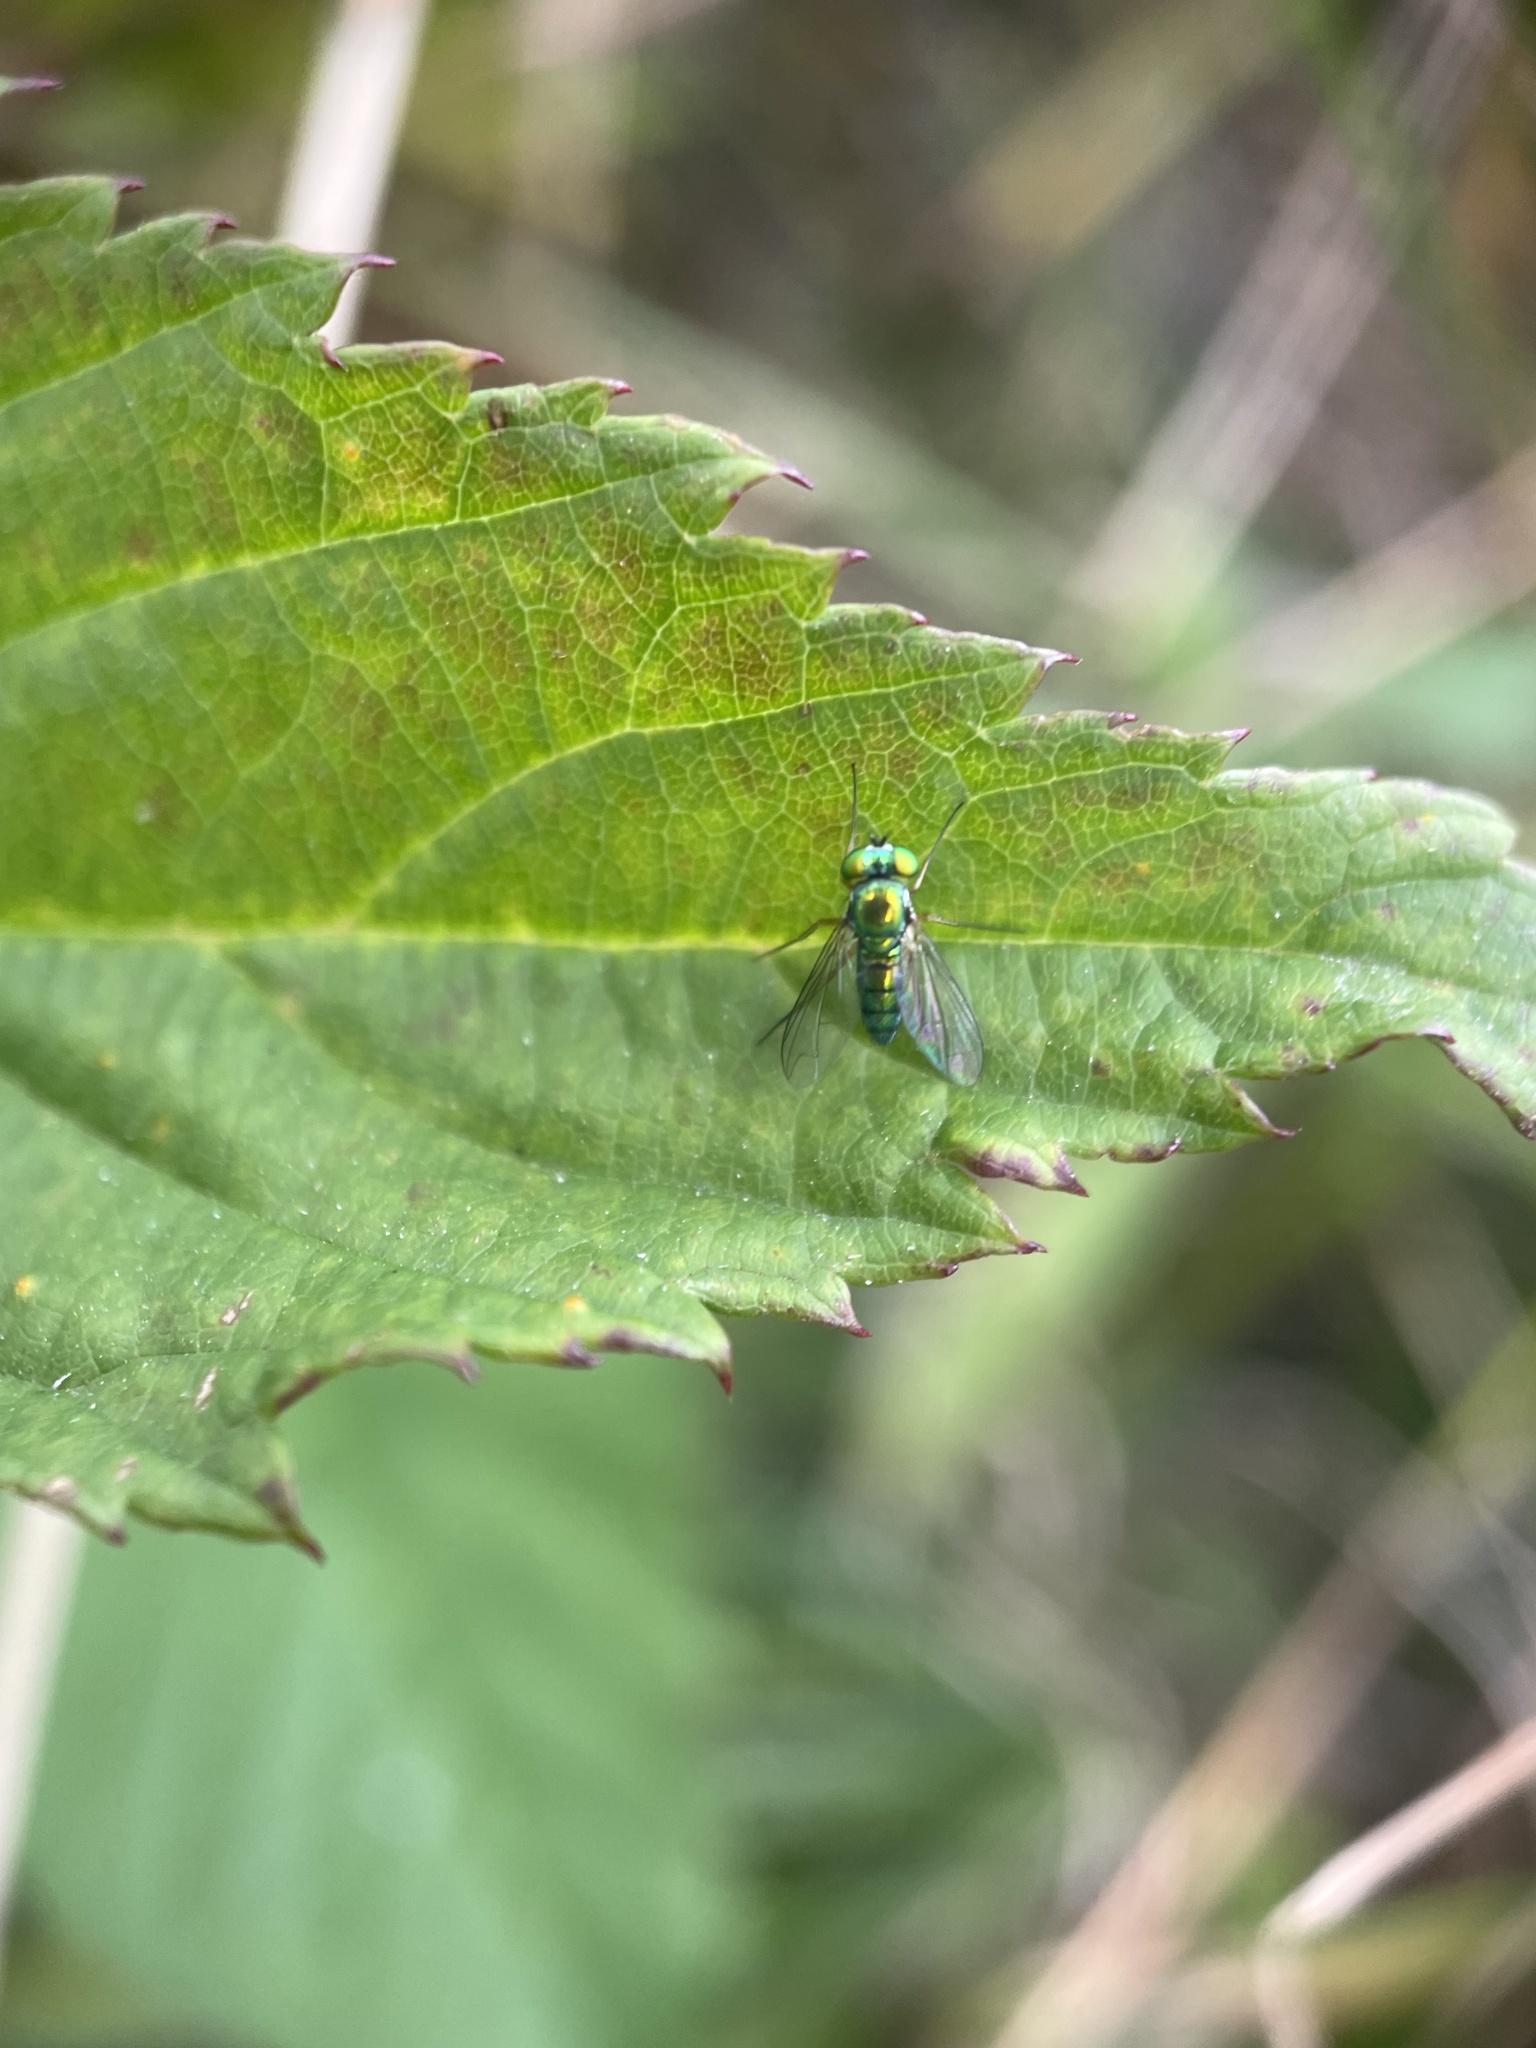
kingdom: Animalia
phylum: Arthropoda
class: Insecta
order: Diptera
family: Dolichopodidae
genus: Condylostylus
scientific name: Condylostylus
